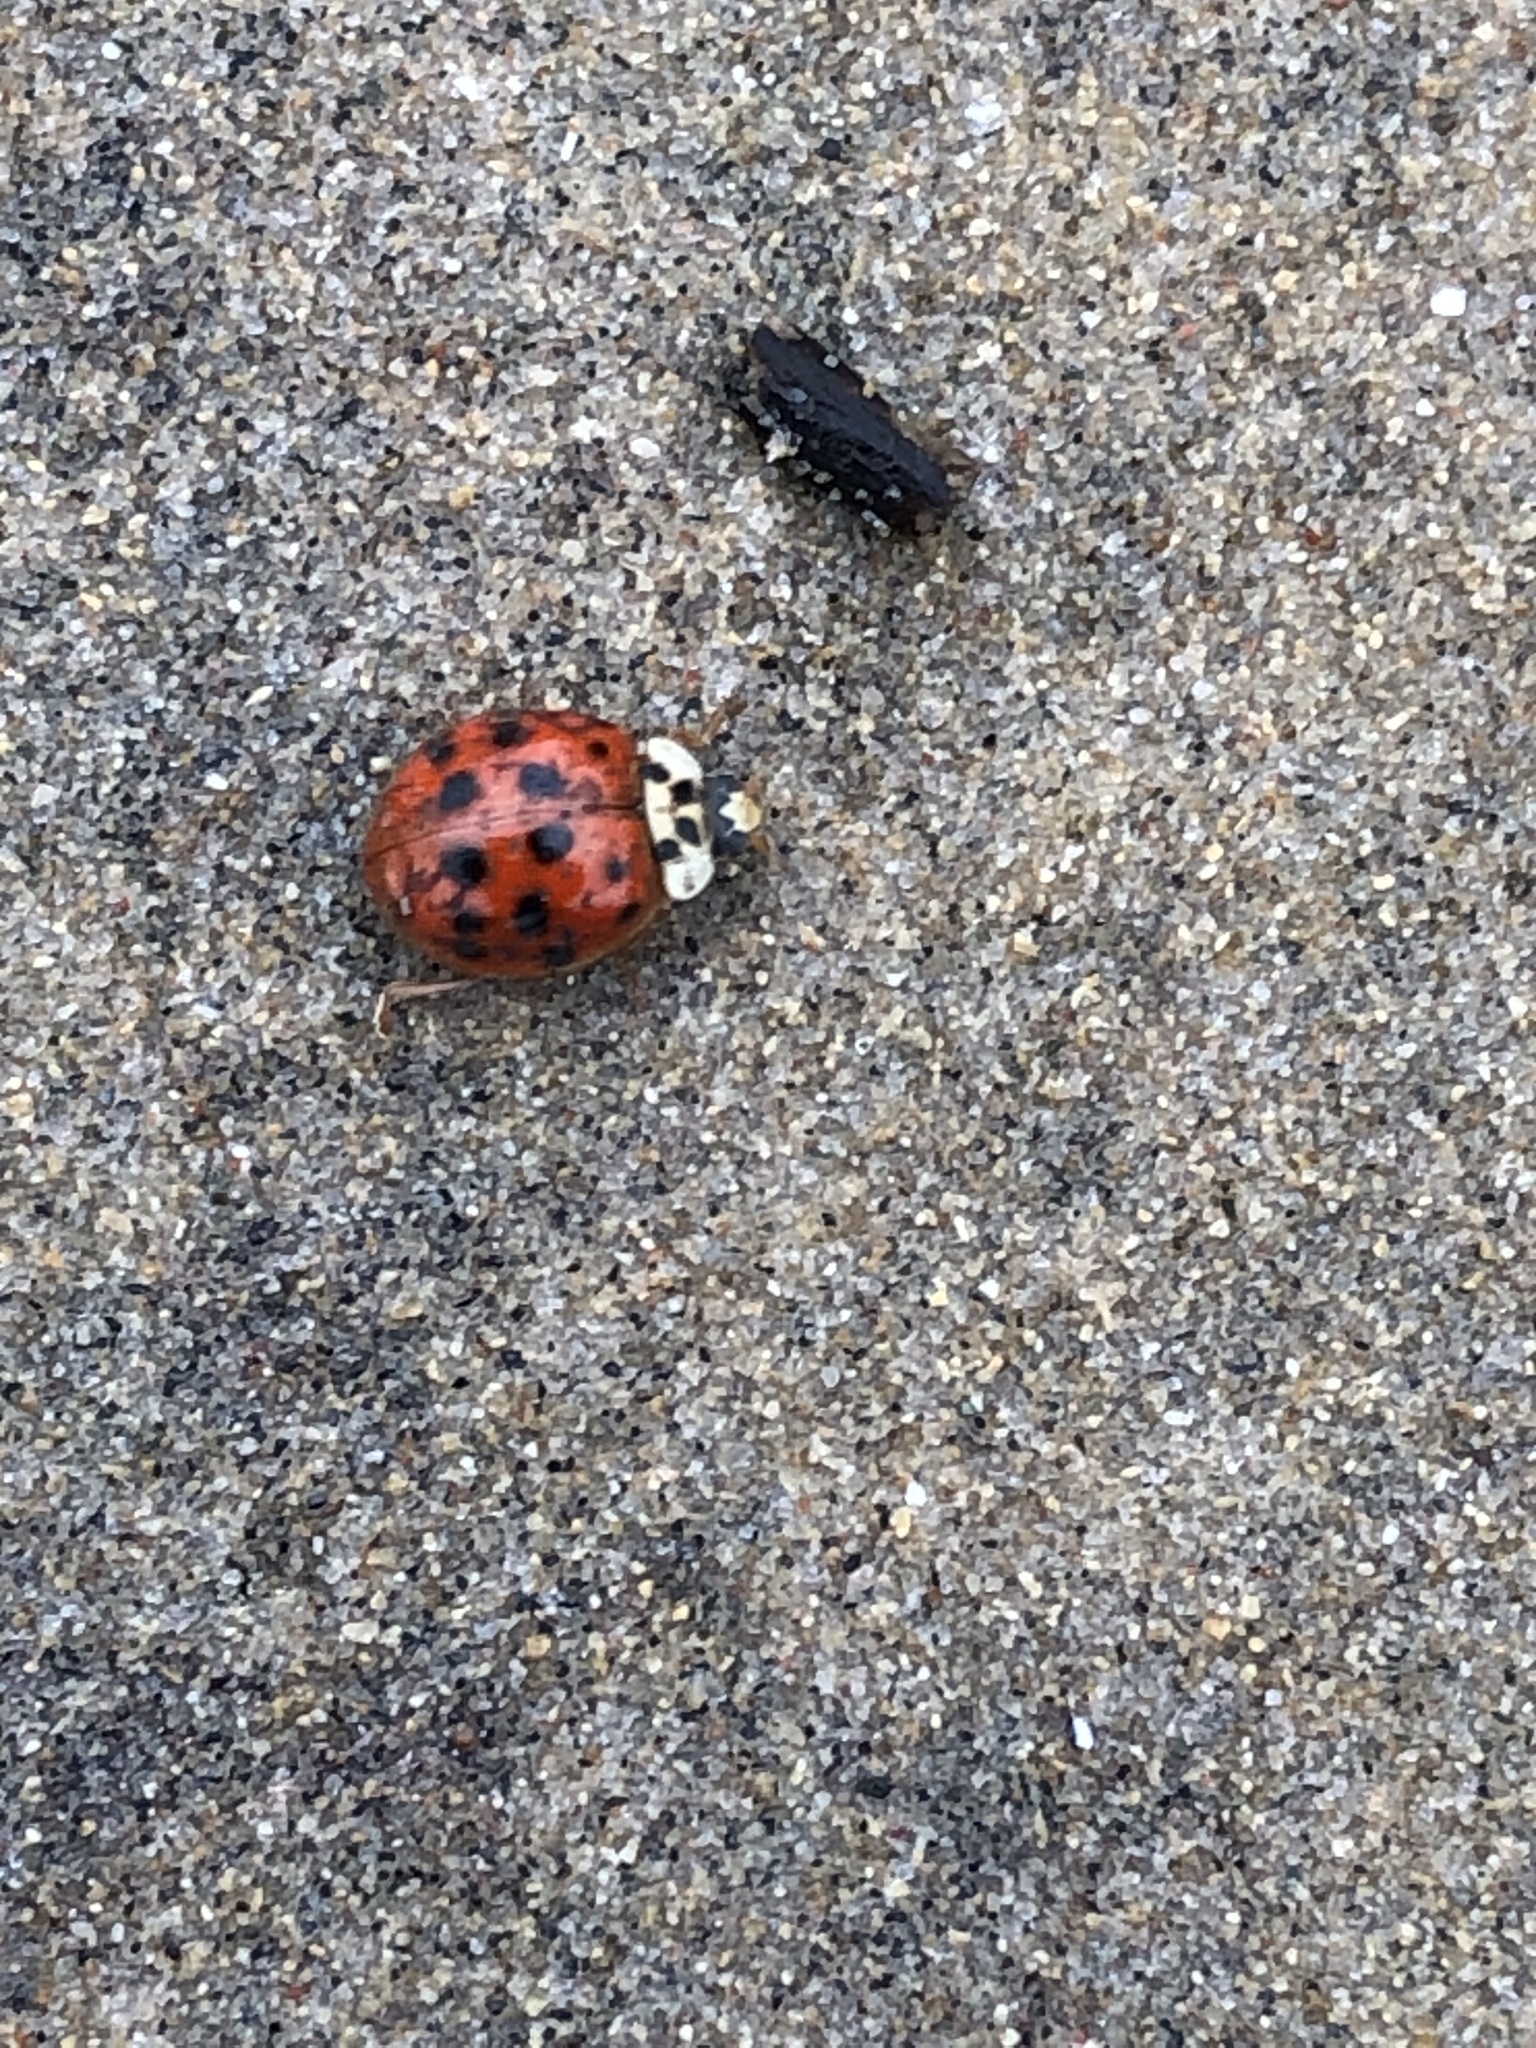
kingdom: Animalia
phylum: Arthropoda
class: Insecta
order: Coleoptera
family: Coccinellidae
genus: Harmonia
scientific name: Harmonia axyridis
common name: Harlequin ladybird
